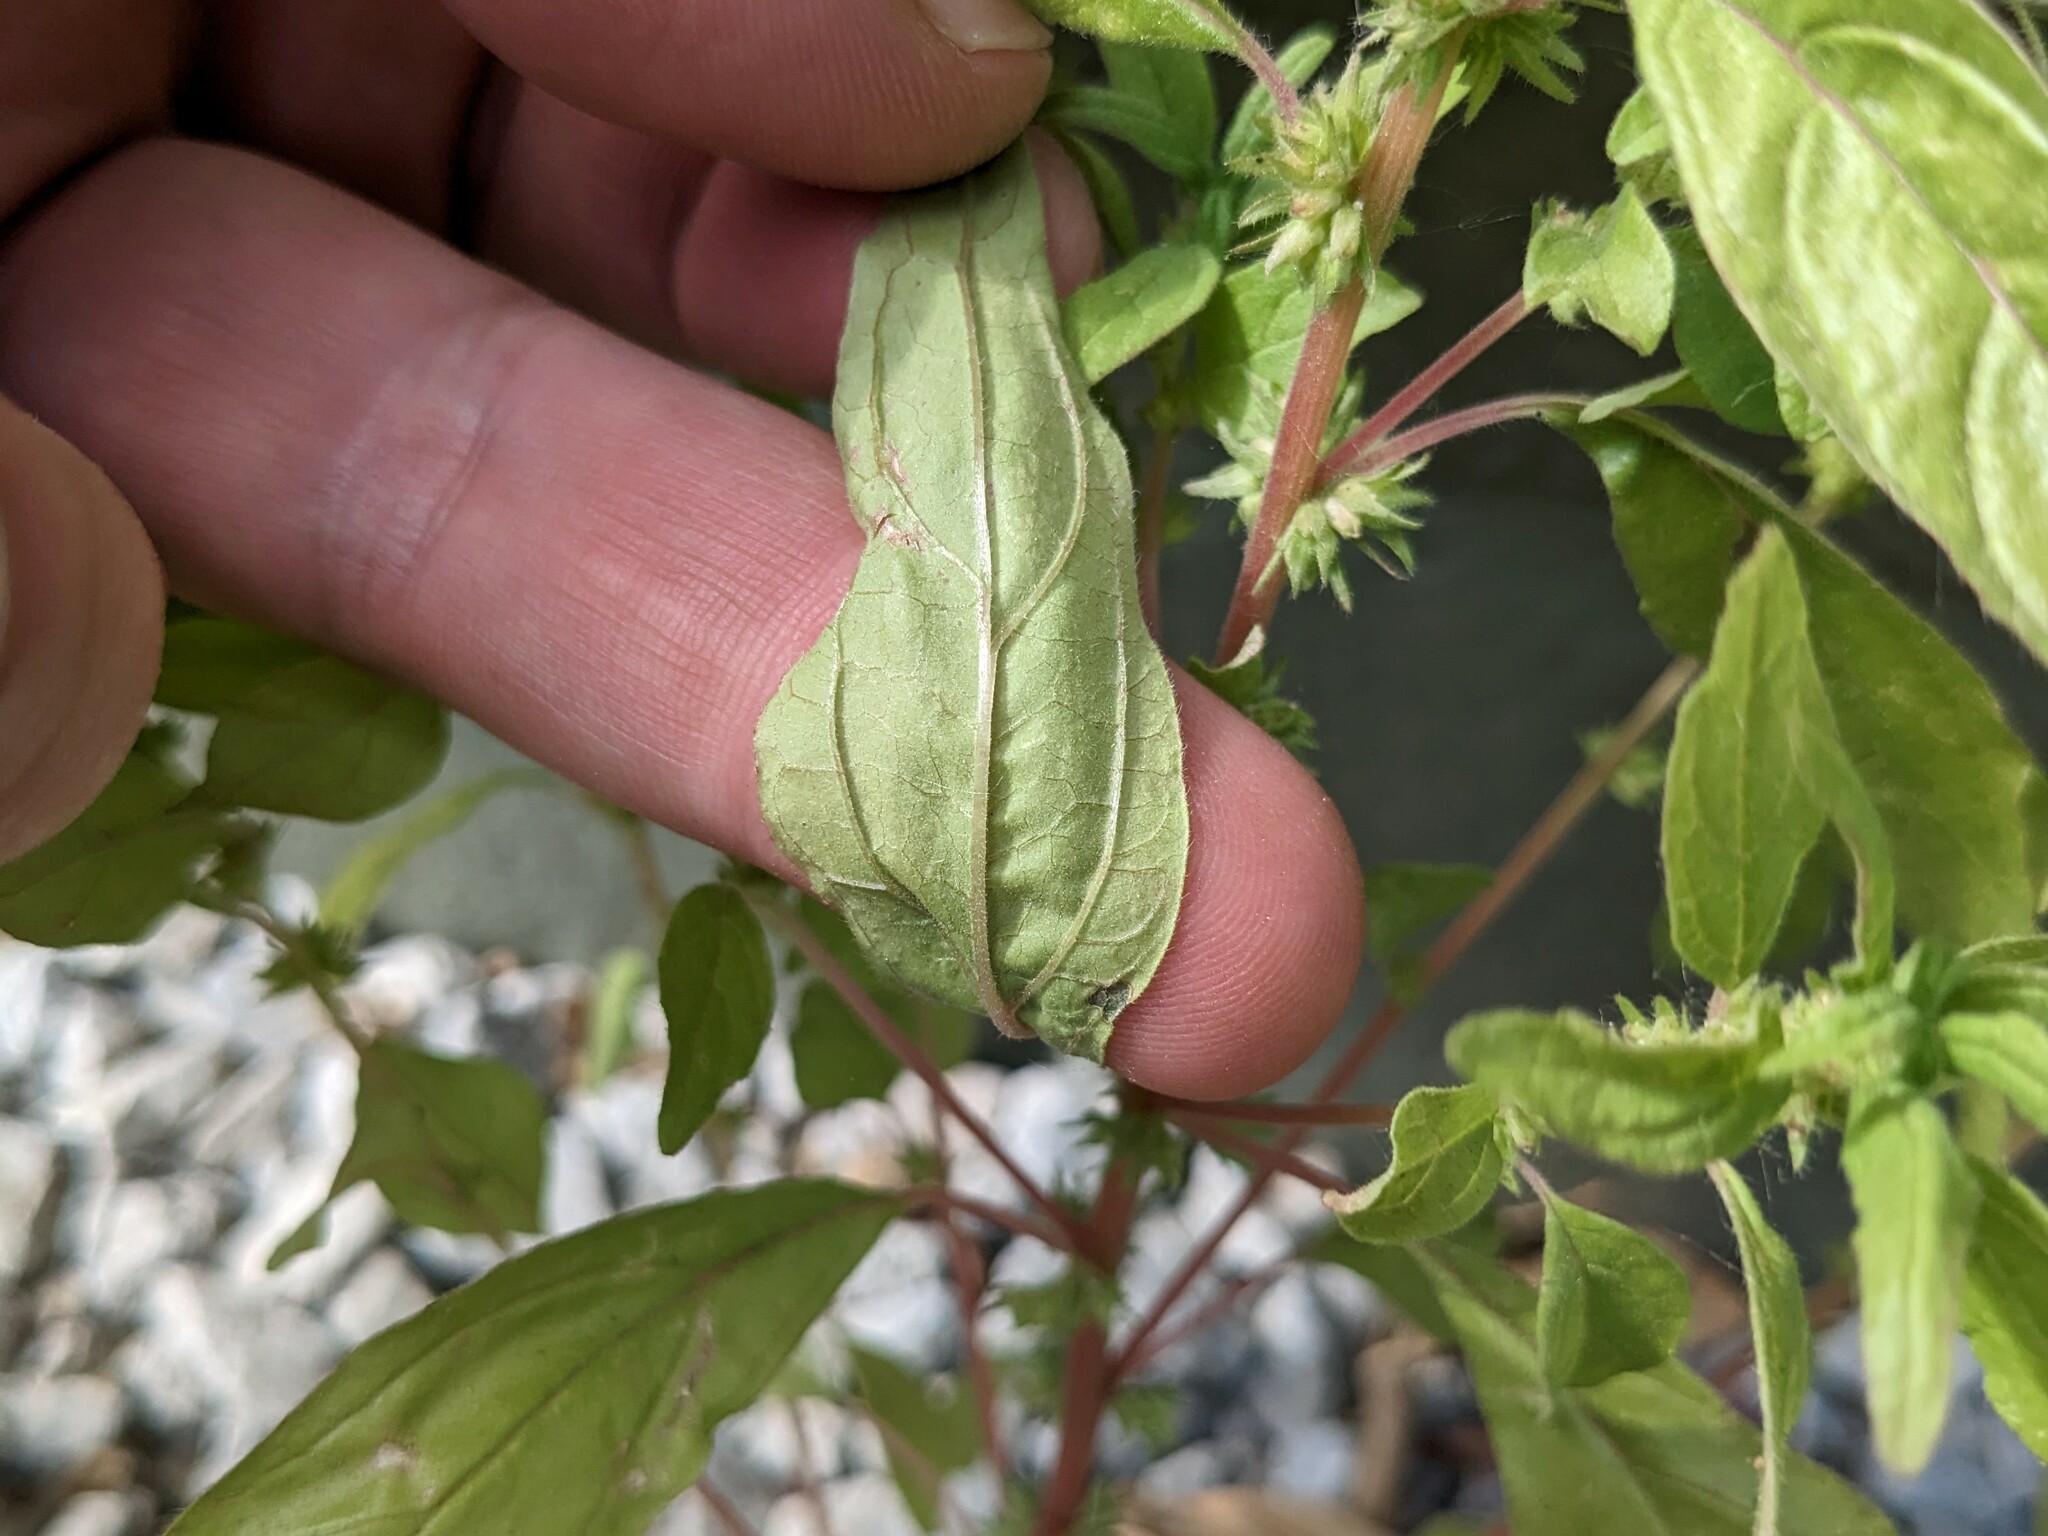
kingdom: Plantae
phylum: Tracheophyta
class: Magnoliopsida
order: Rosales
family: Urticaceae
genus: Parietaria
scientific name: Parietaria pensylvanica
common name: Pennsylvania pellitory
